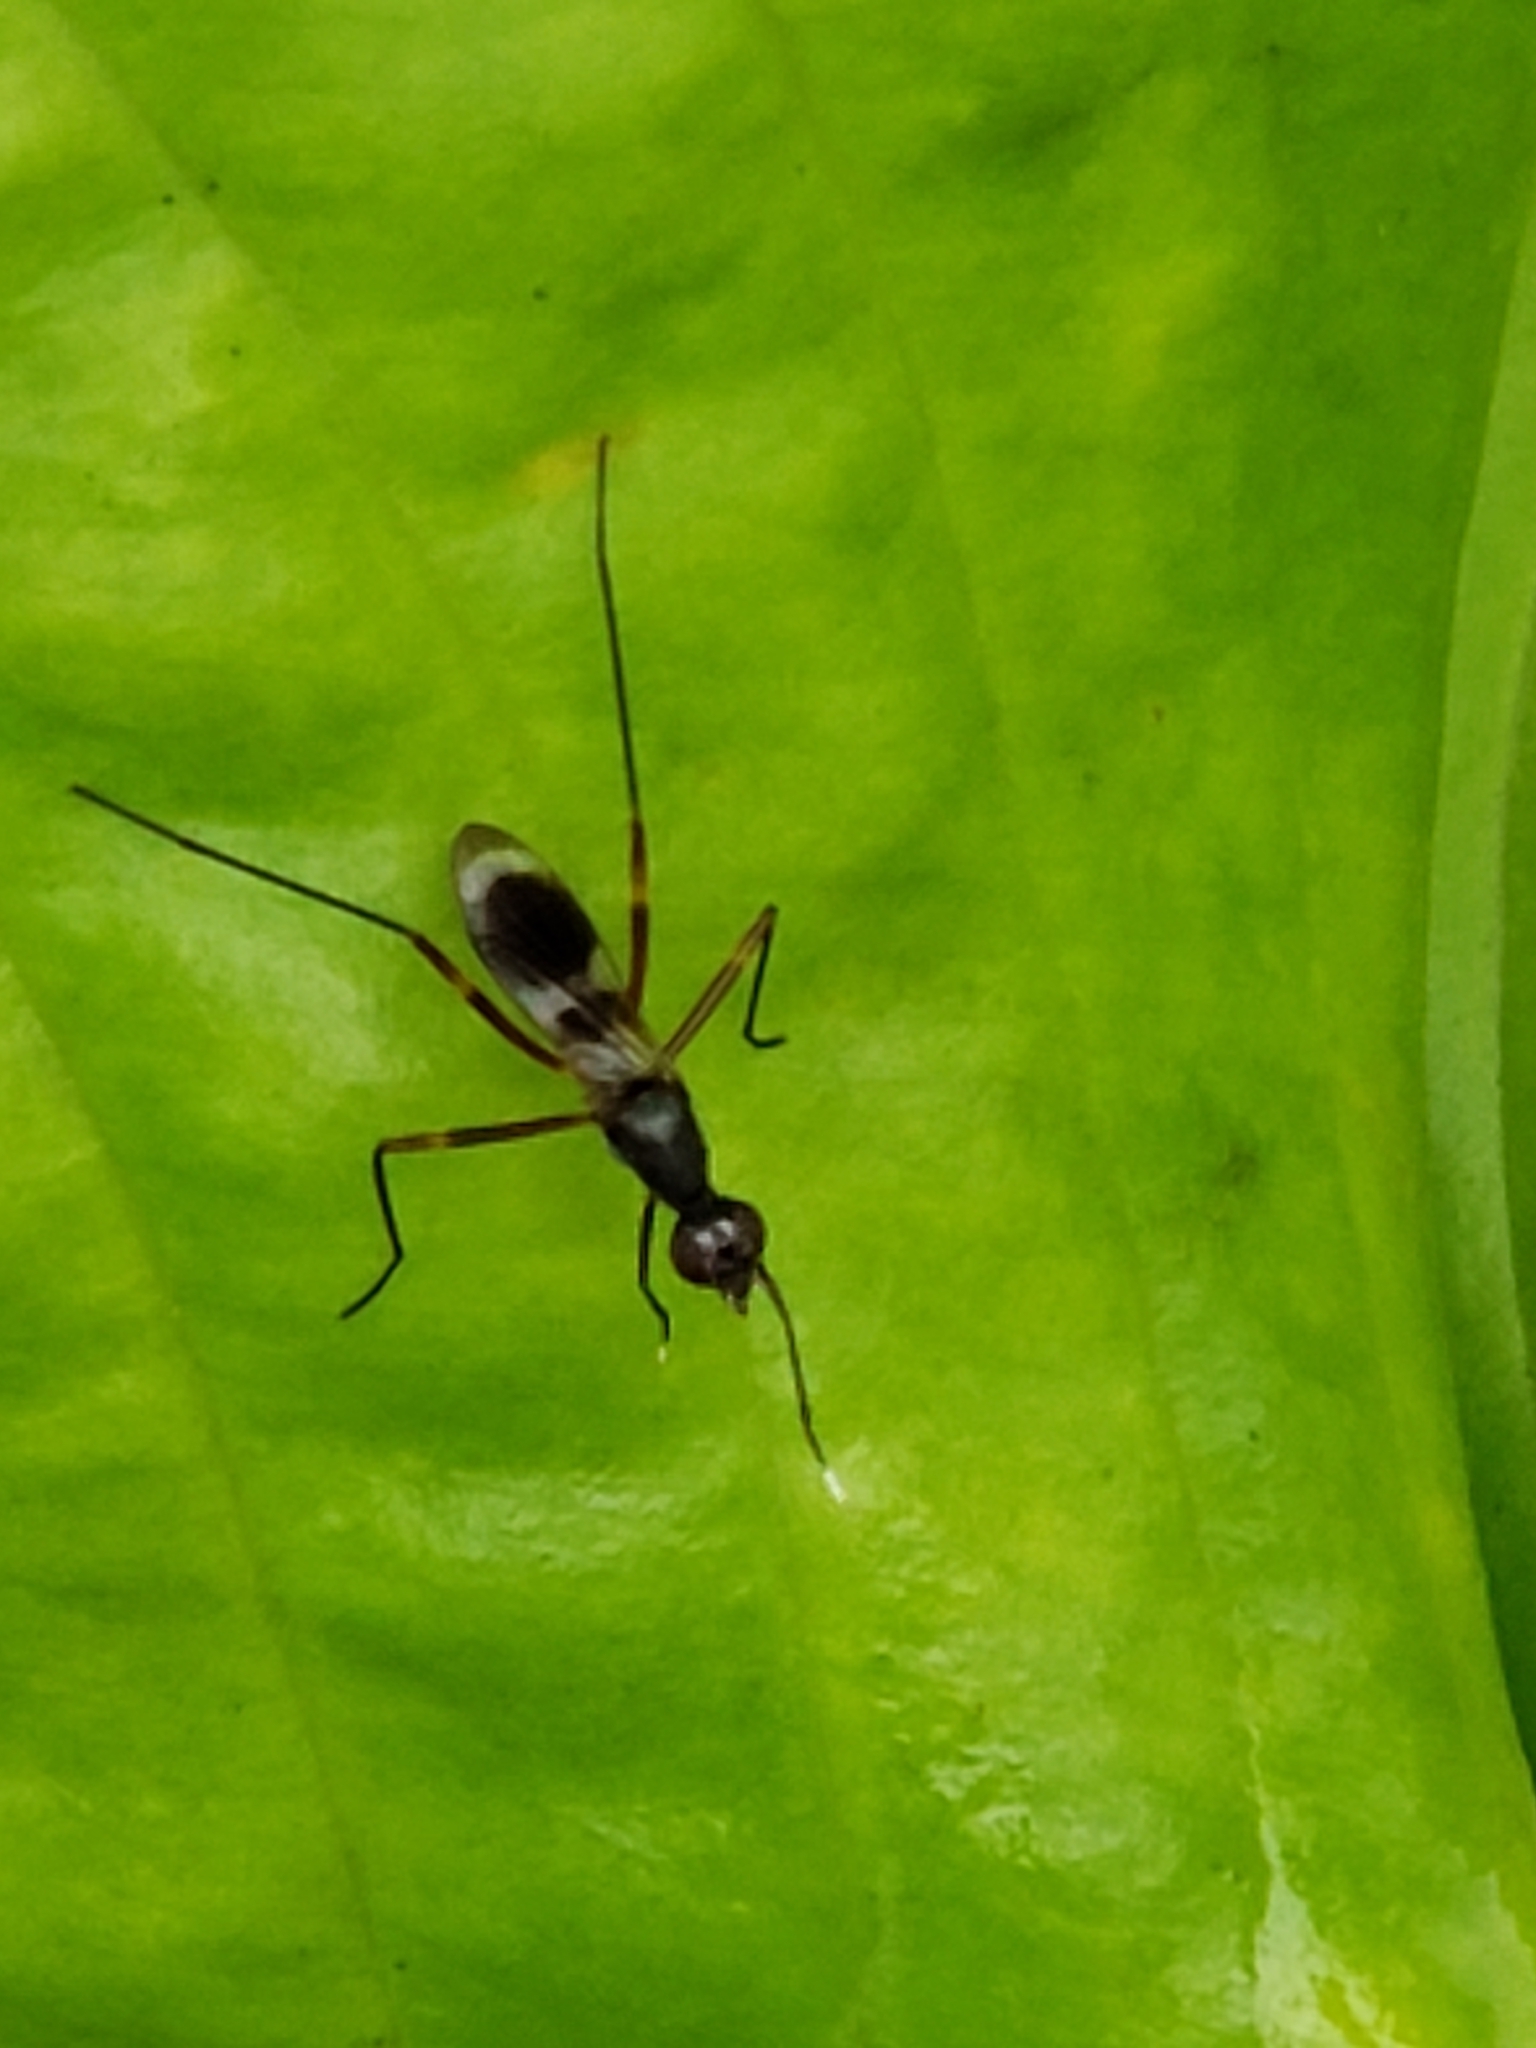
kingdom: Animalia
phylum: Arthropoda
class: Insecta
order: Diptera
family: Micropezidae
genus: Taeniaptera
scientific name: Taeniaptera trivittata
